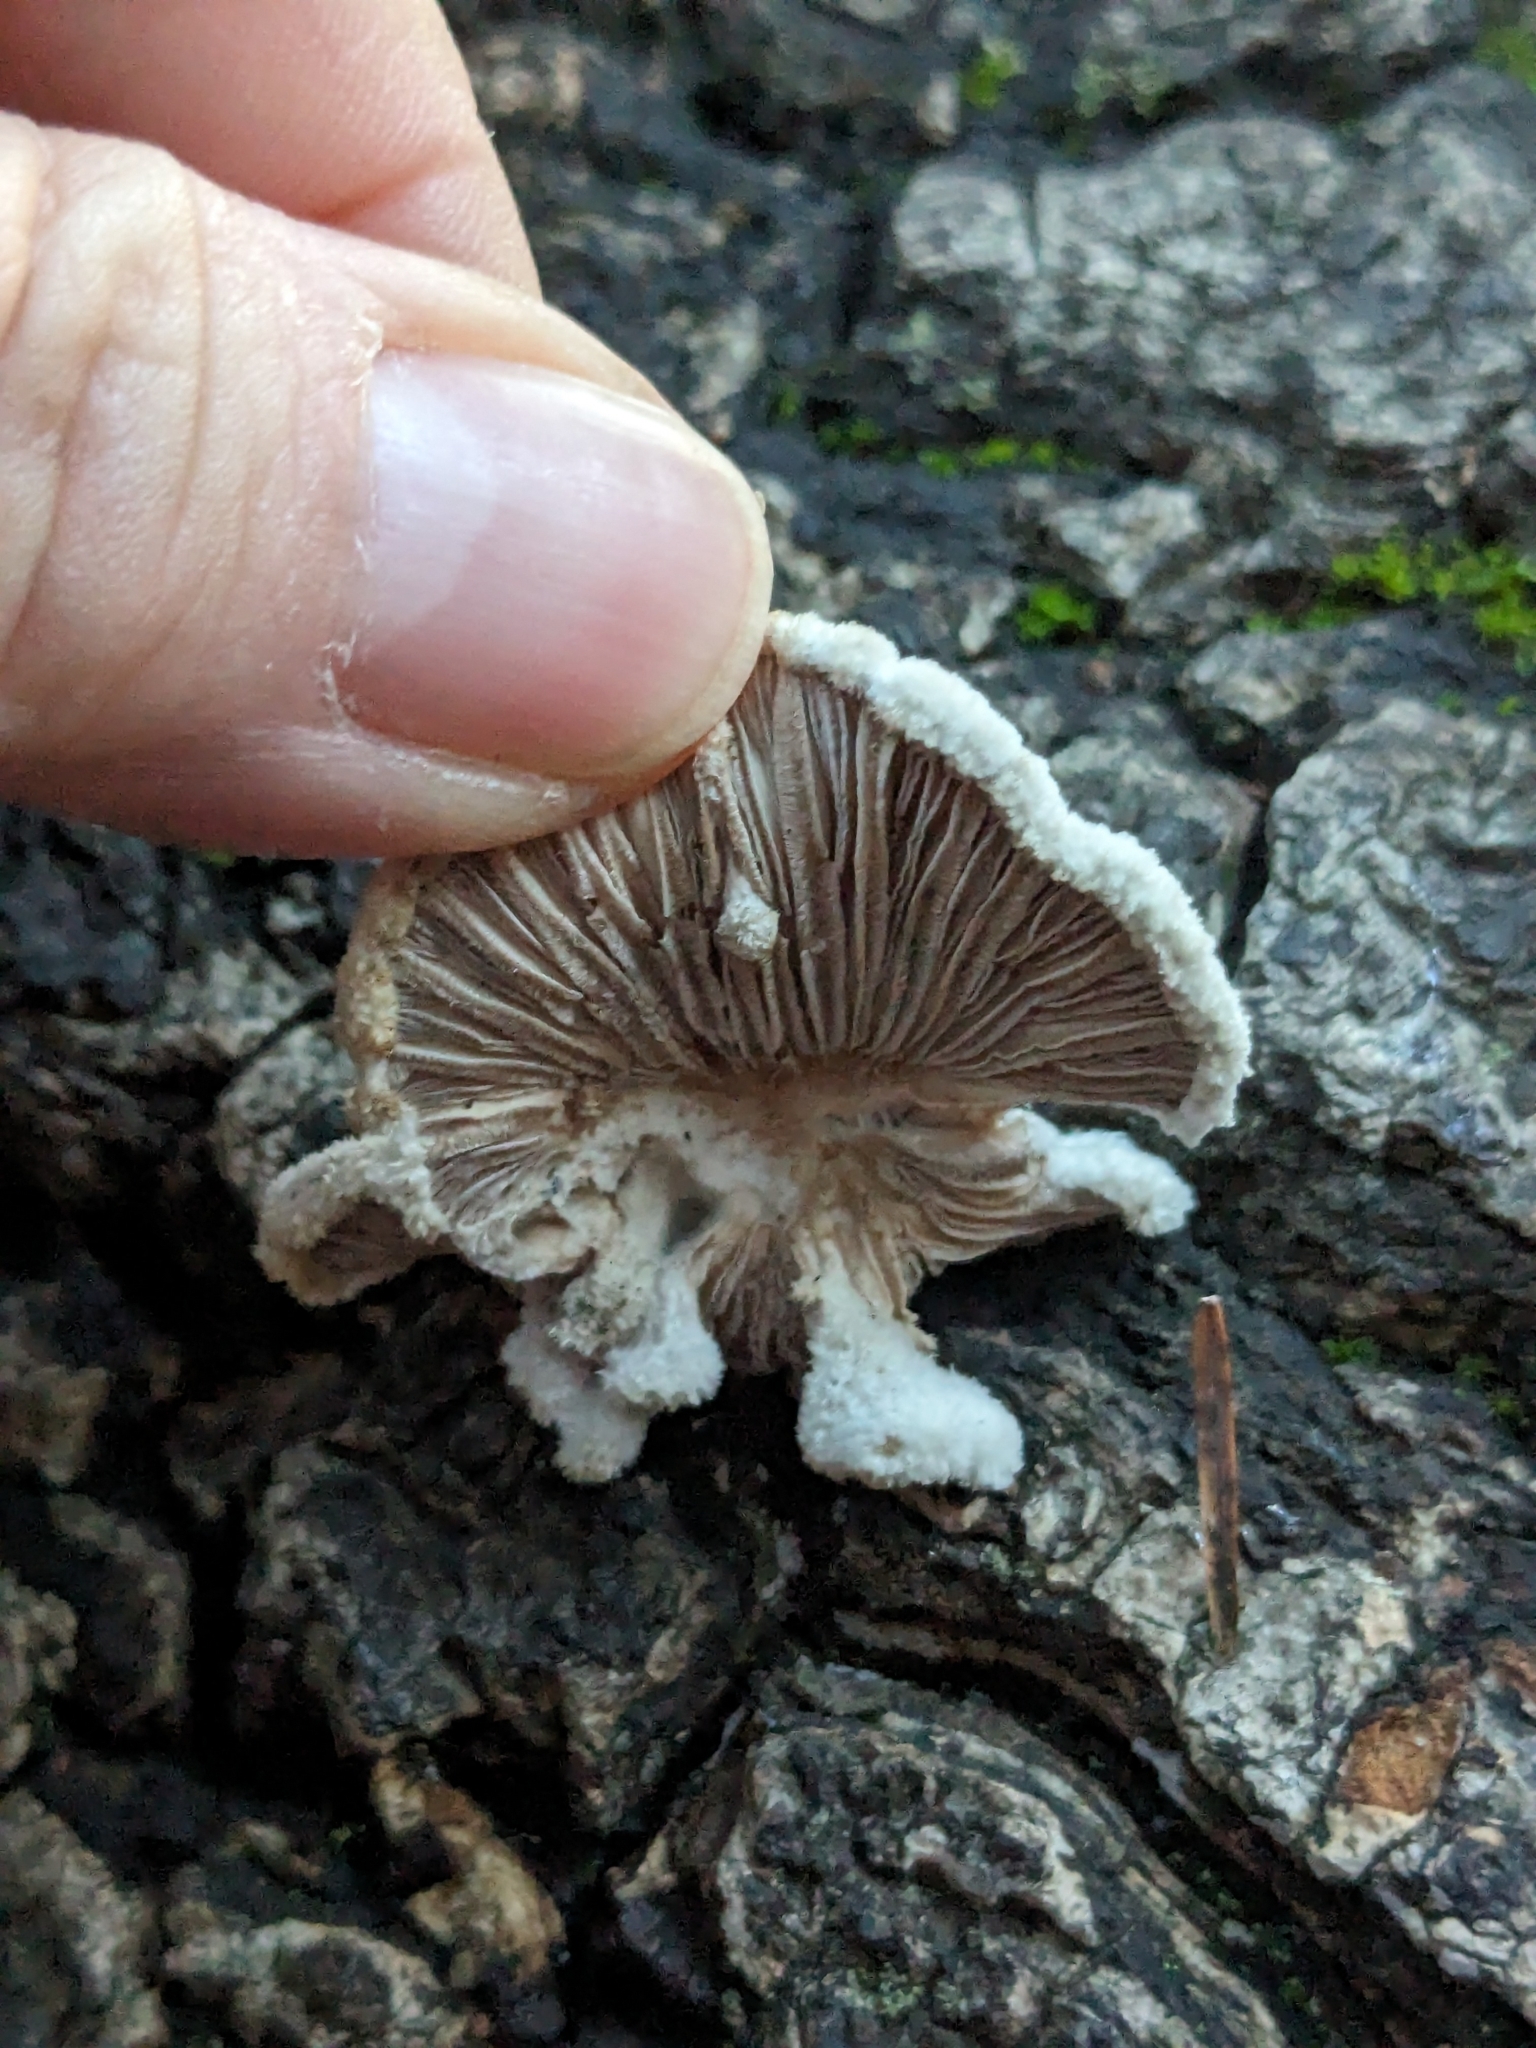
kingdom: Fungi
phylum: Basidiomycota
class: Agaricomycetes
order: Agaricales
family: Schizophyllaceae
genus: Schizophyllum
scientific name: Schizophyllum commune
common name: Common porecrust
